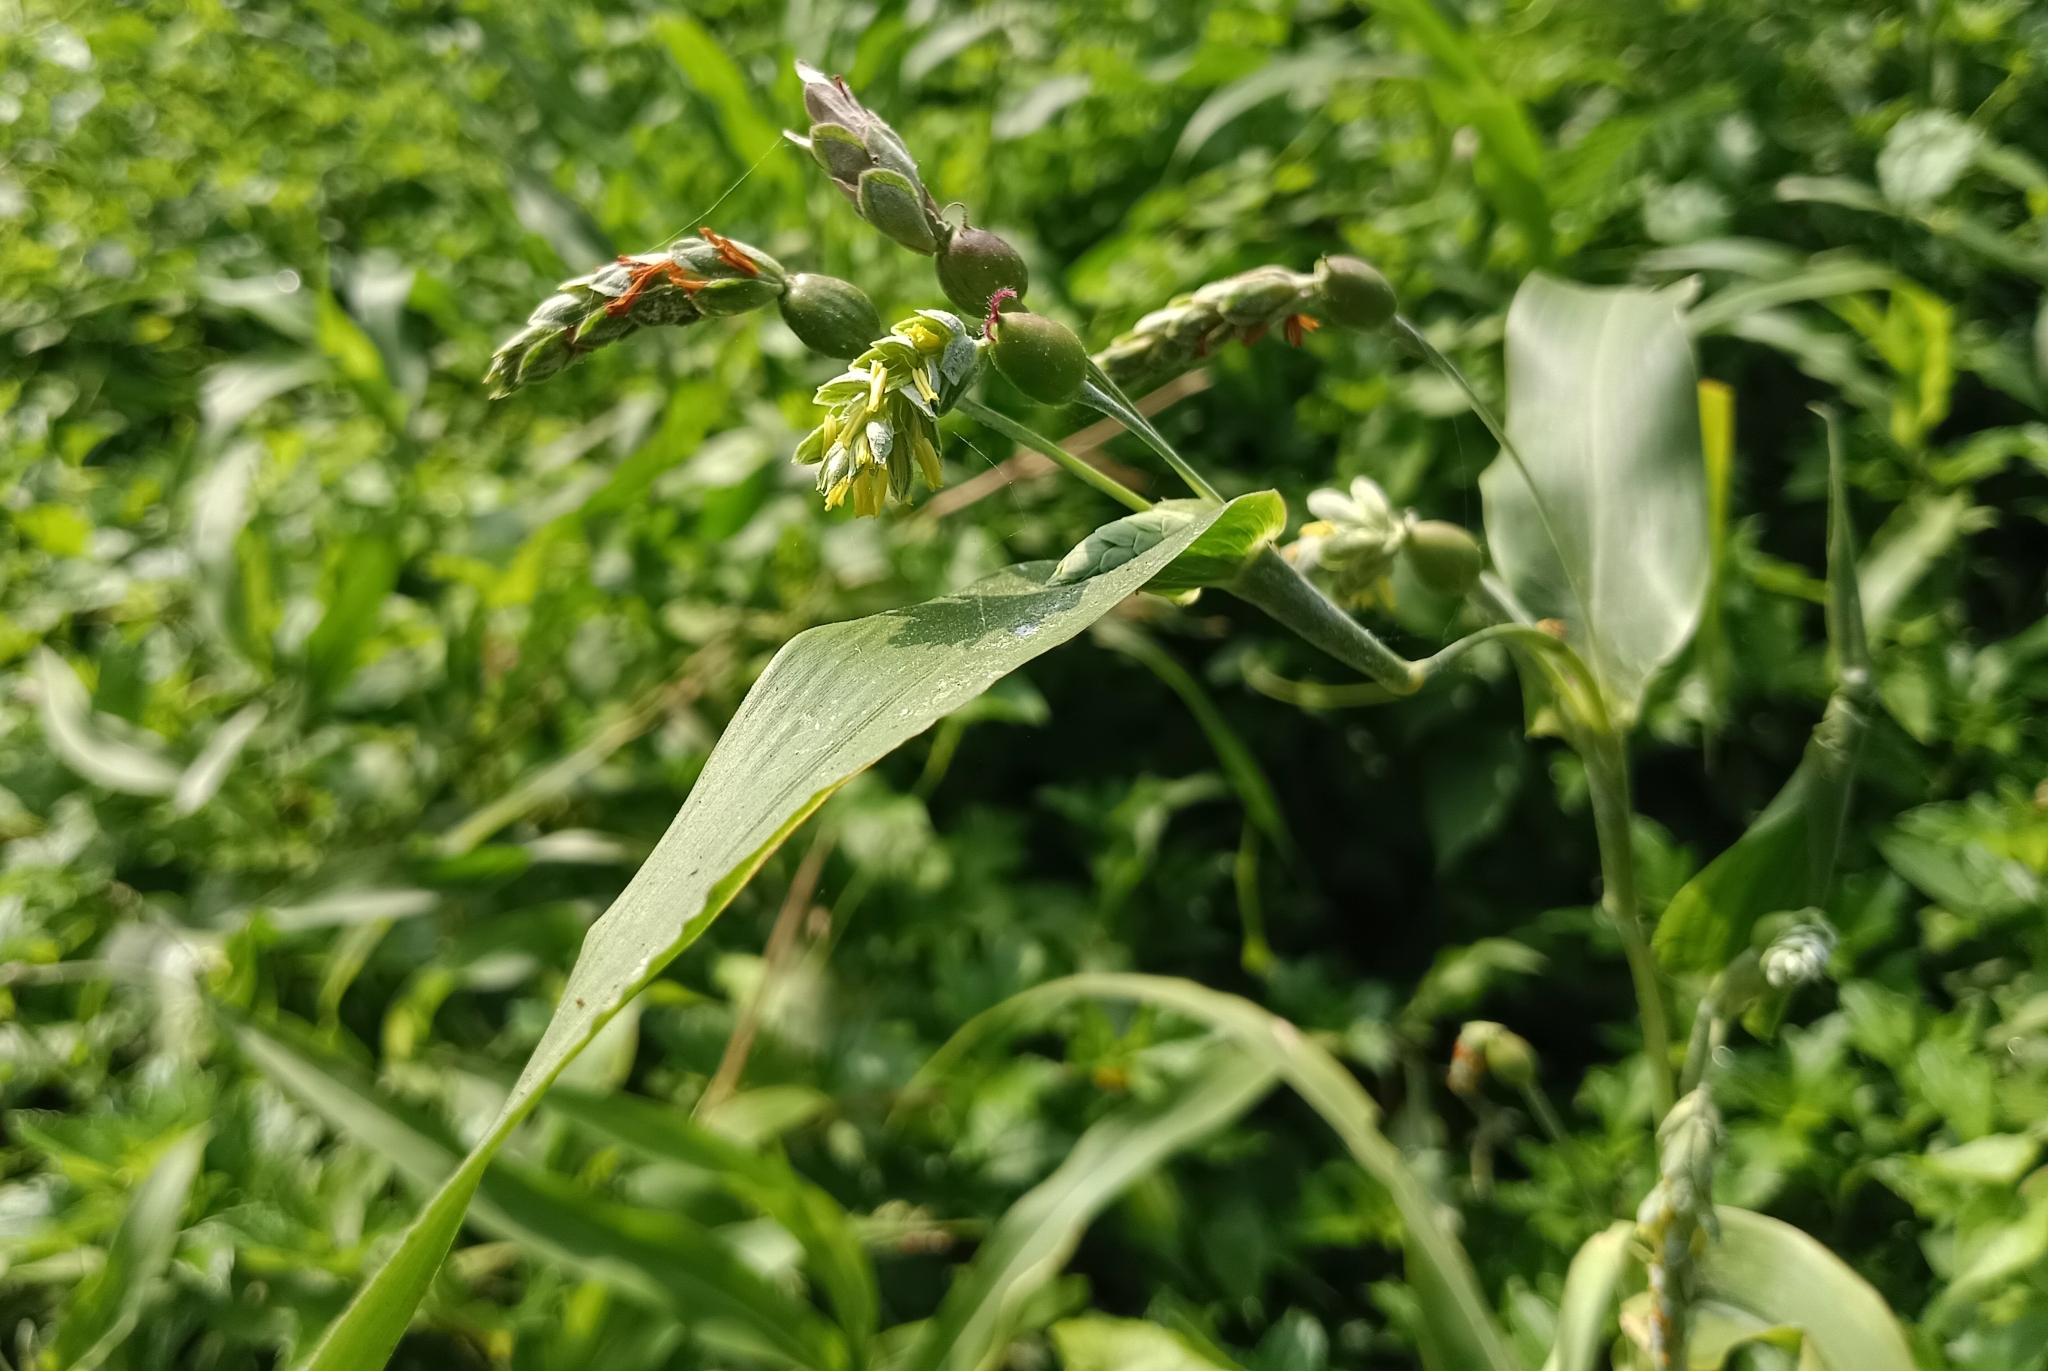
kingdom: Plantae
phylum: Tracheophyta
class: Liliopsida
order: Poales
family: Poaceae
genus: Coix
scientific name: Coix lacryma-jobi
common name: Job's tears
